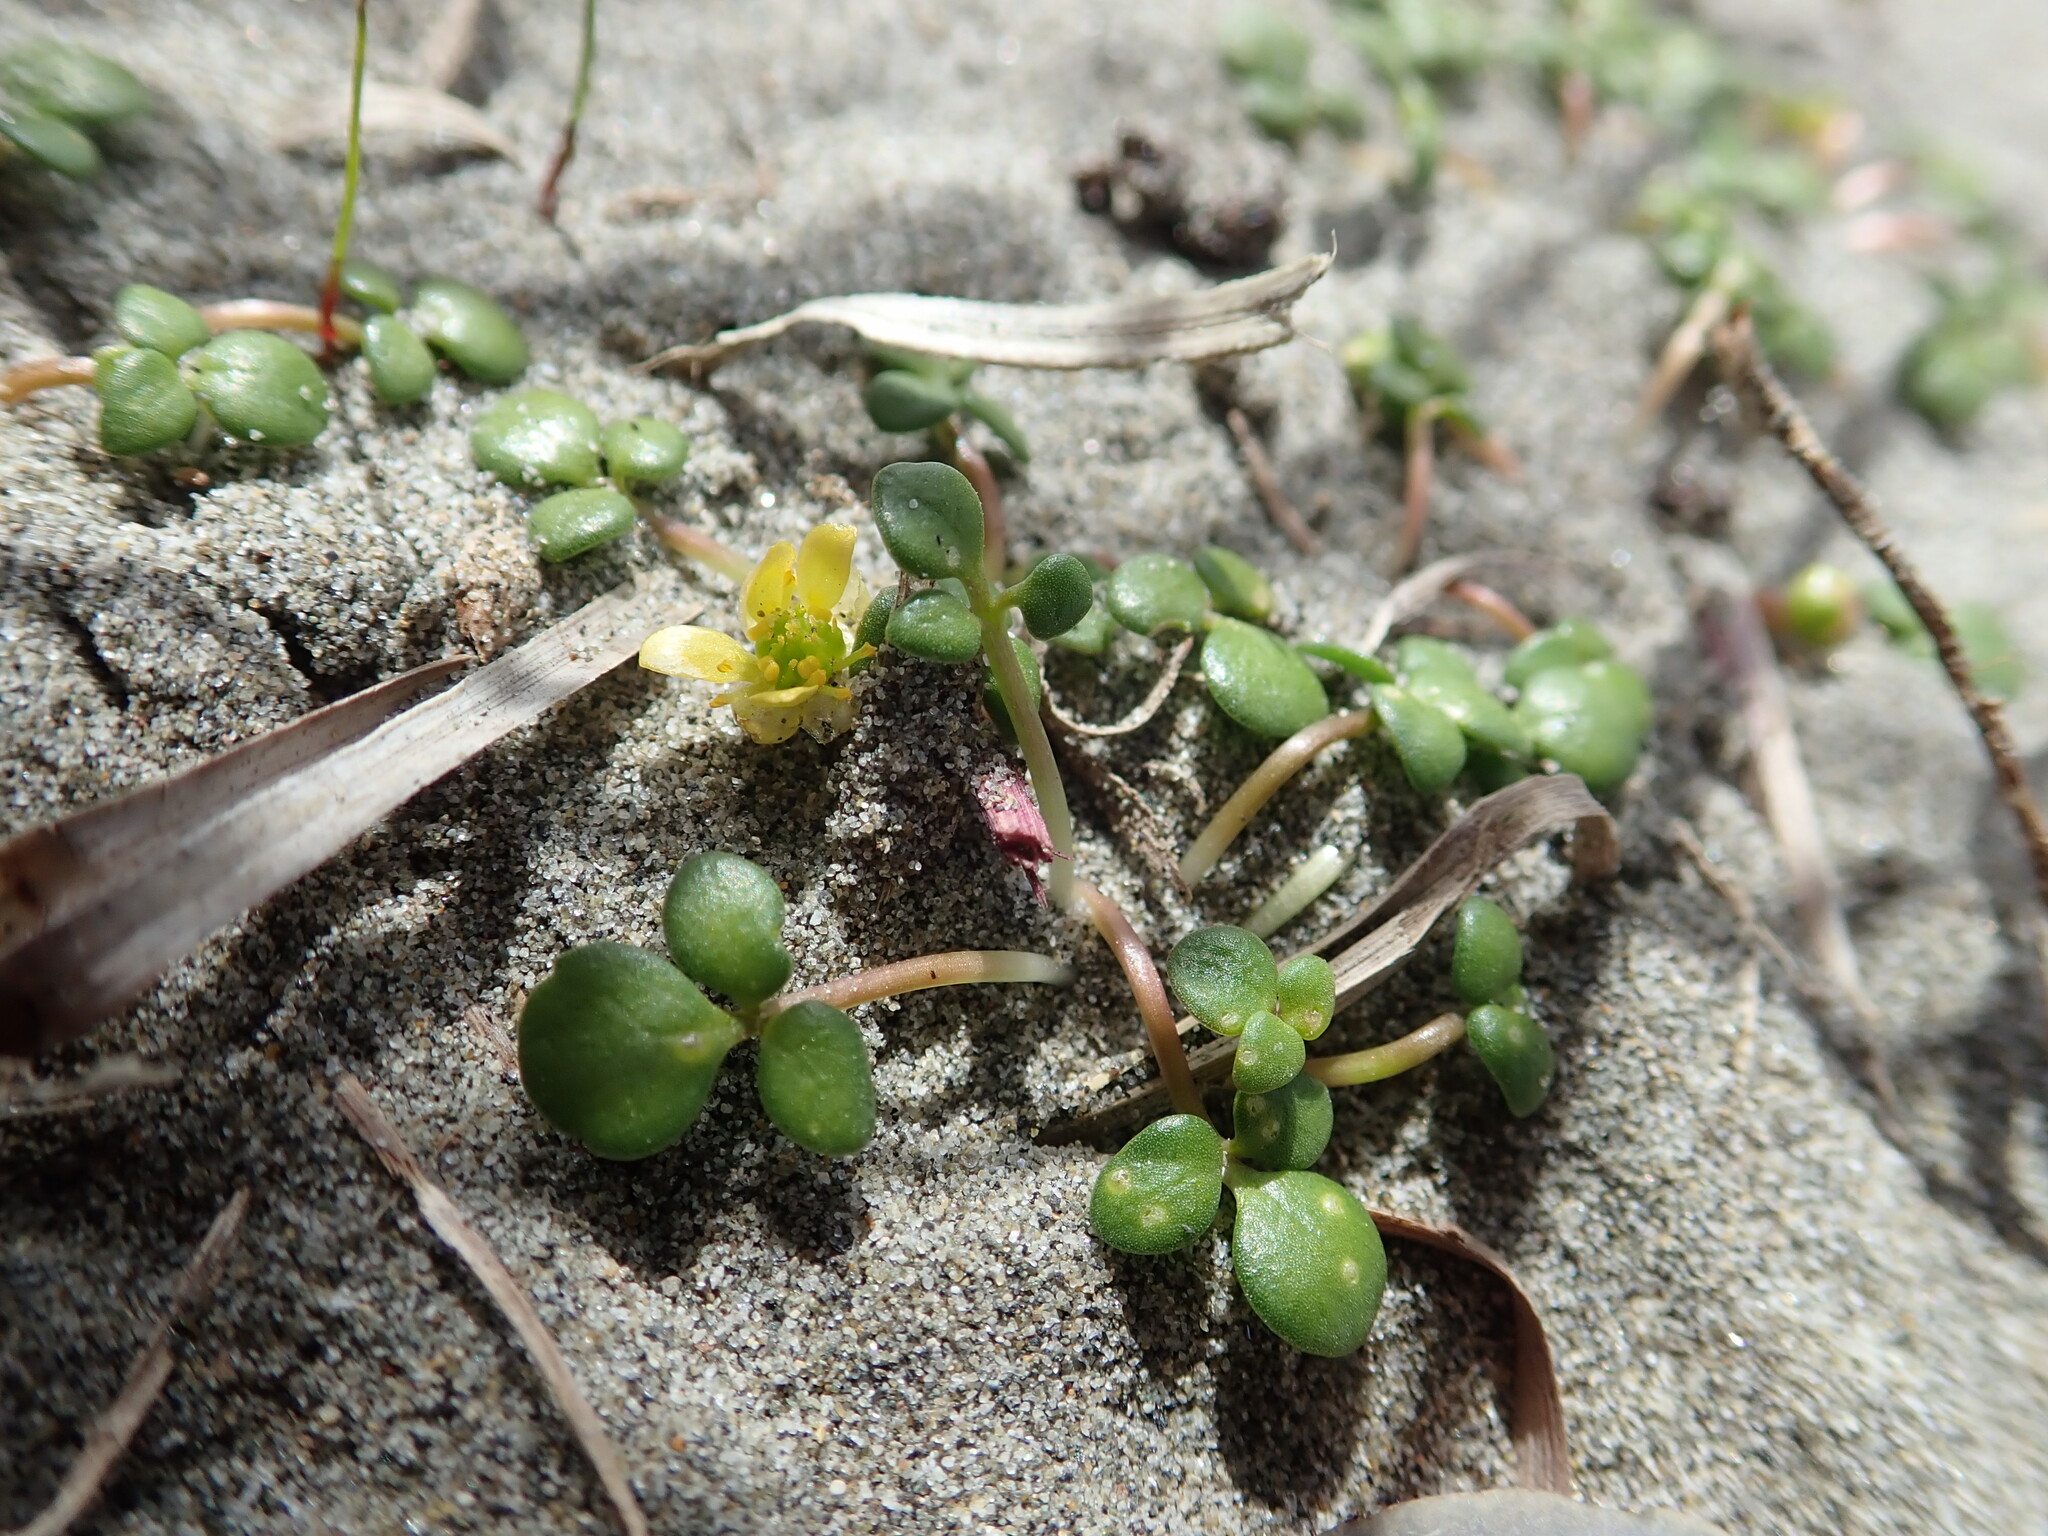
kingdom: Plantae
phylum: Tracheophyta
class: Magnoliopsida
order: Ranunculales
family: Ranunculaceae
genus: Ranunculus
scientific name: Ranunculus acaulis
